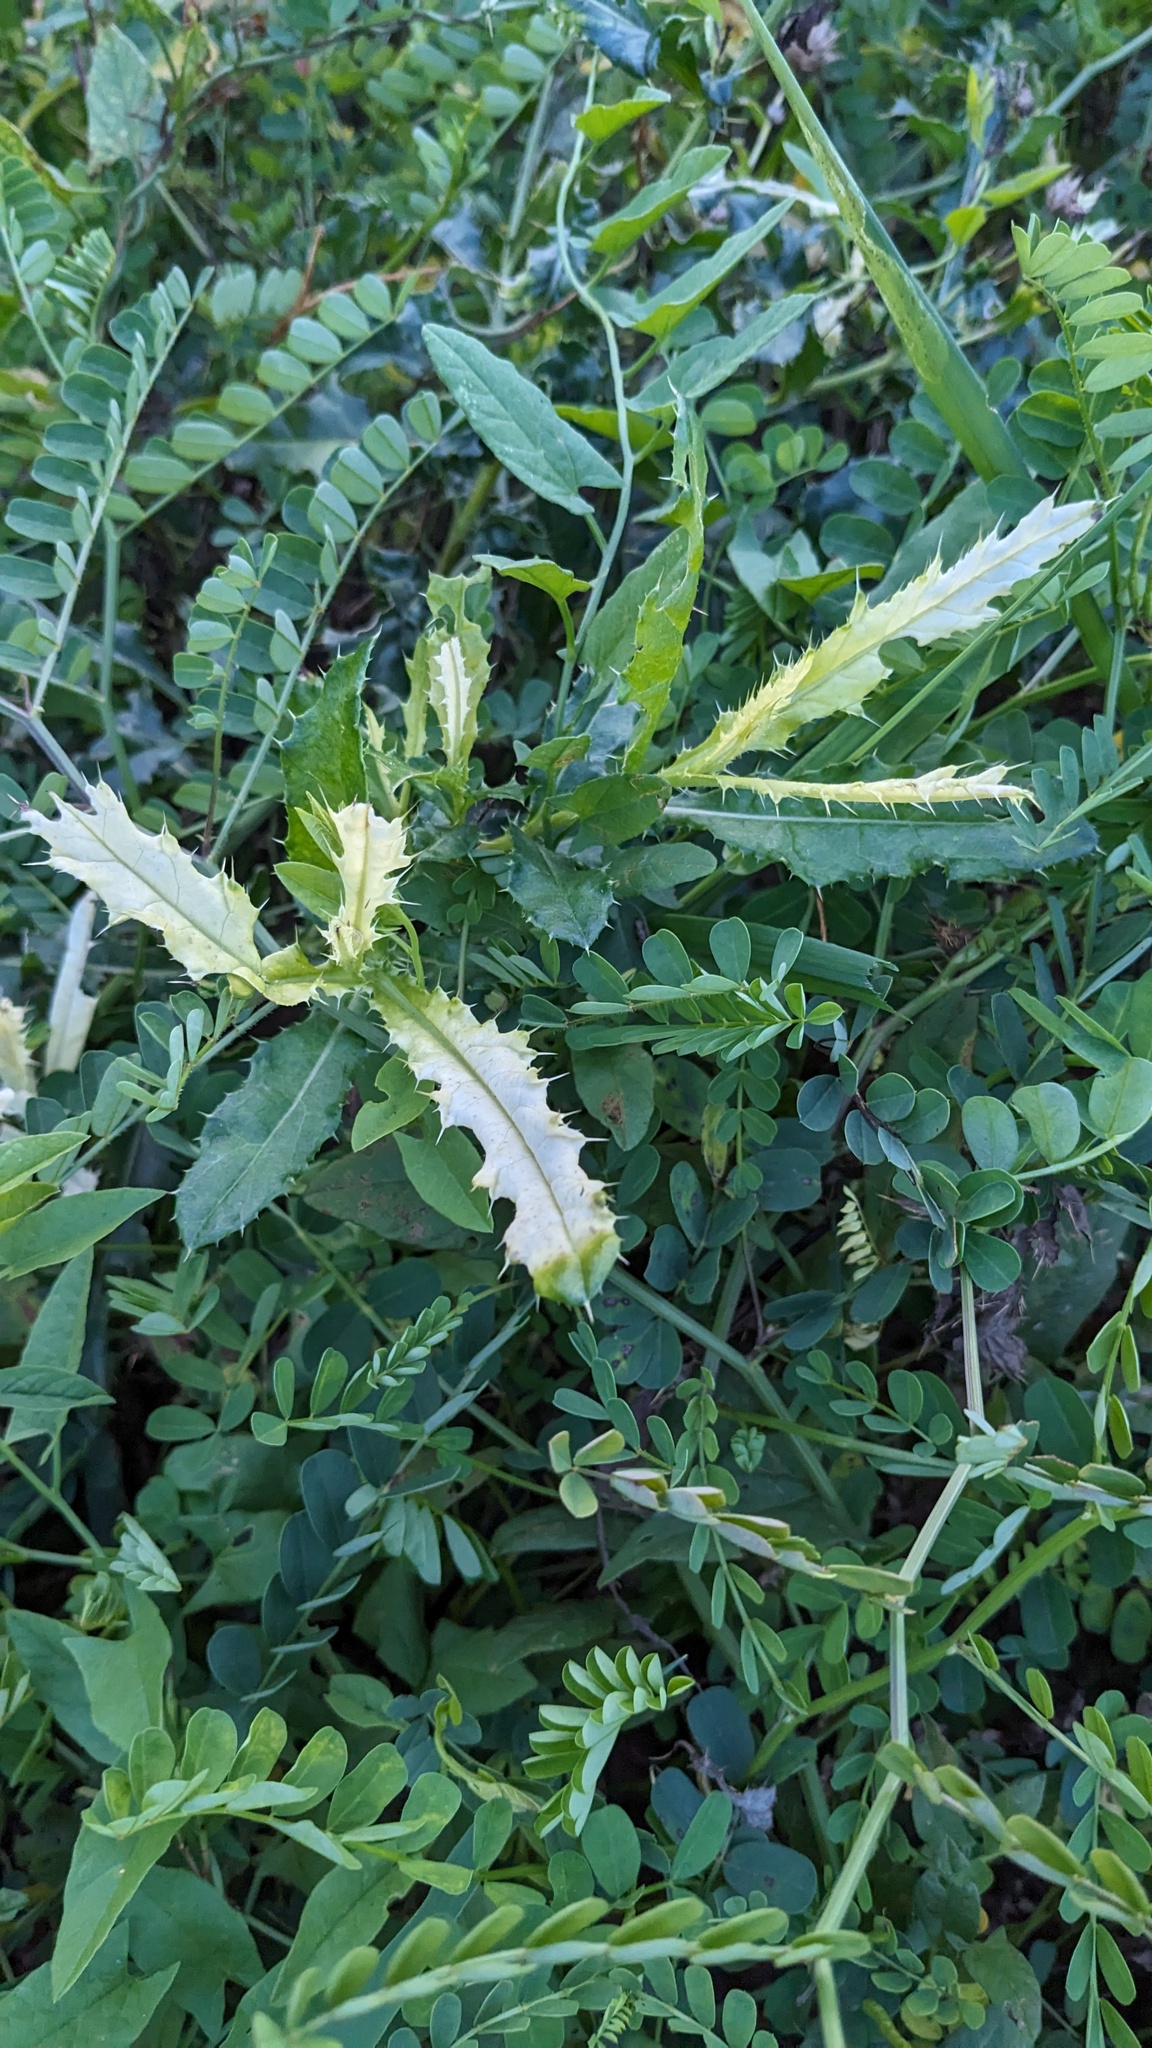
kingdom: Bacteria
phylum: Proteobacteria
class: Gammaproteobacteria
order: Pseudomonadales
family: Pseudomonadaceae
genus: Pseudomonas
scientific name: Pseudomonas syringae
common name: Bacterial speck
